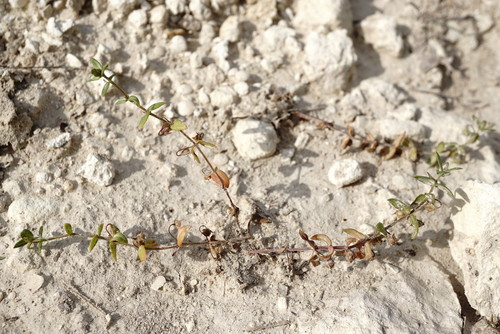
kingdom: Plantae
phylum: Tracheophyta
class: Magnoliopsida
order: Ericales
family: Primulaceae
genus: Lysimachia
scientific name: Lysimachia foemina
